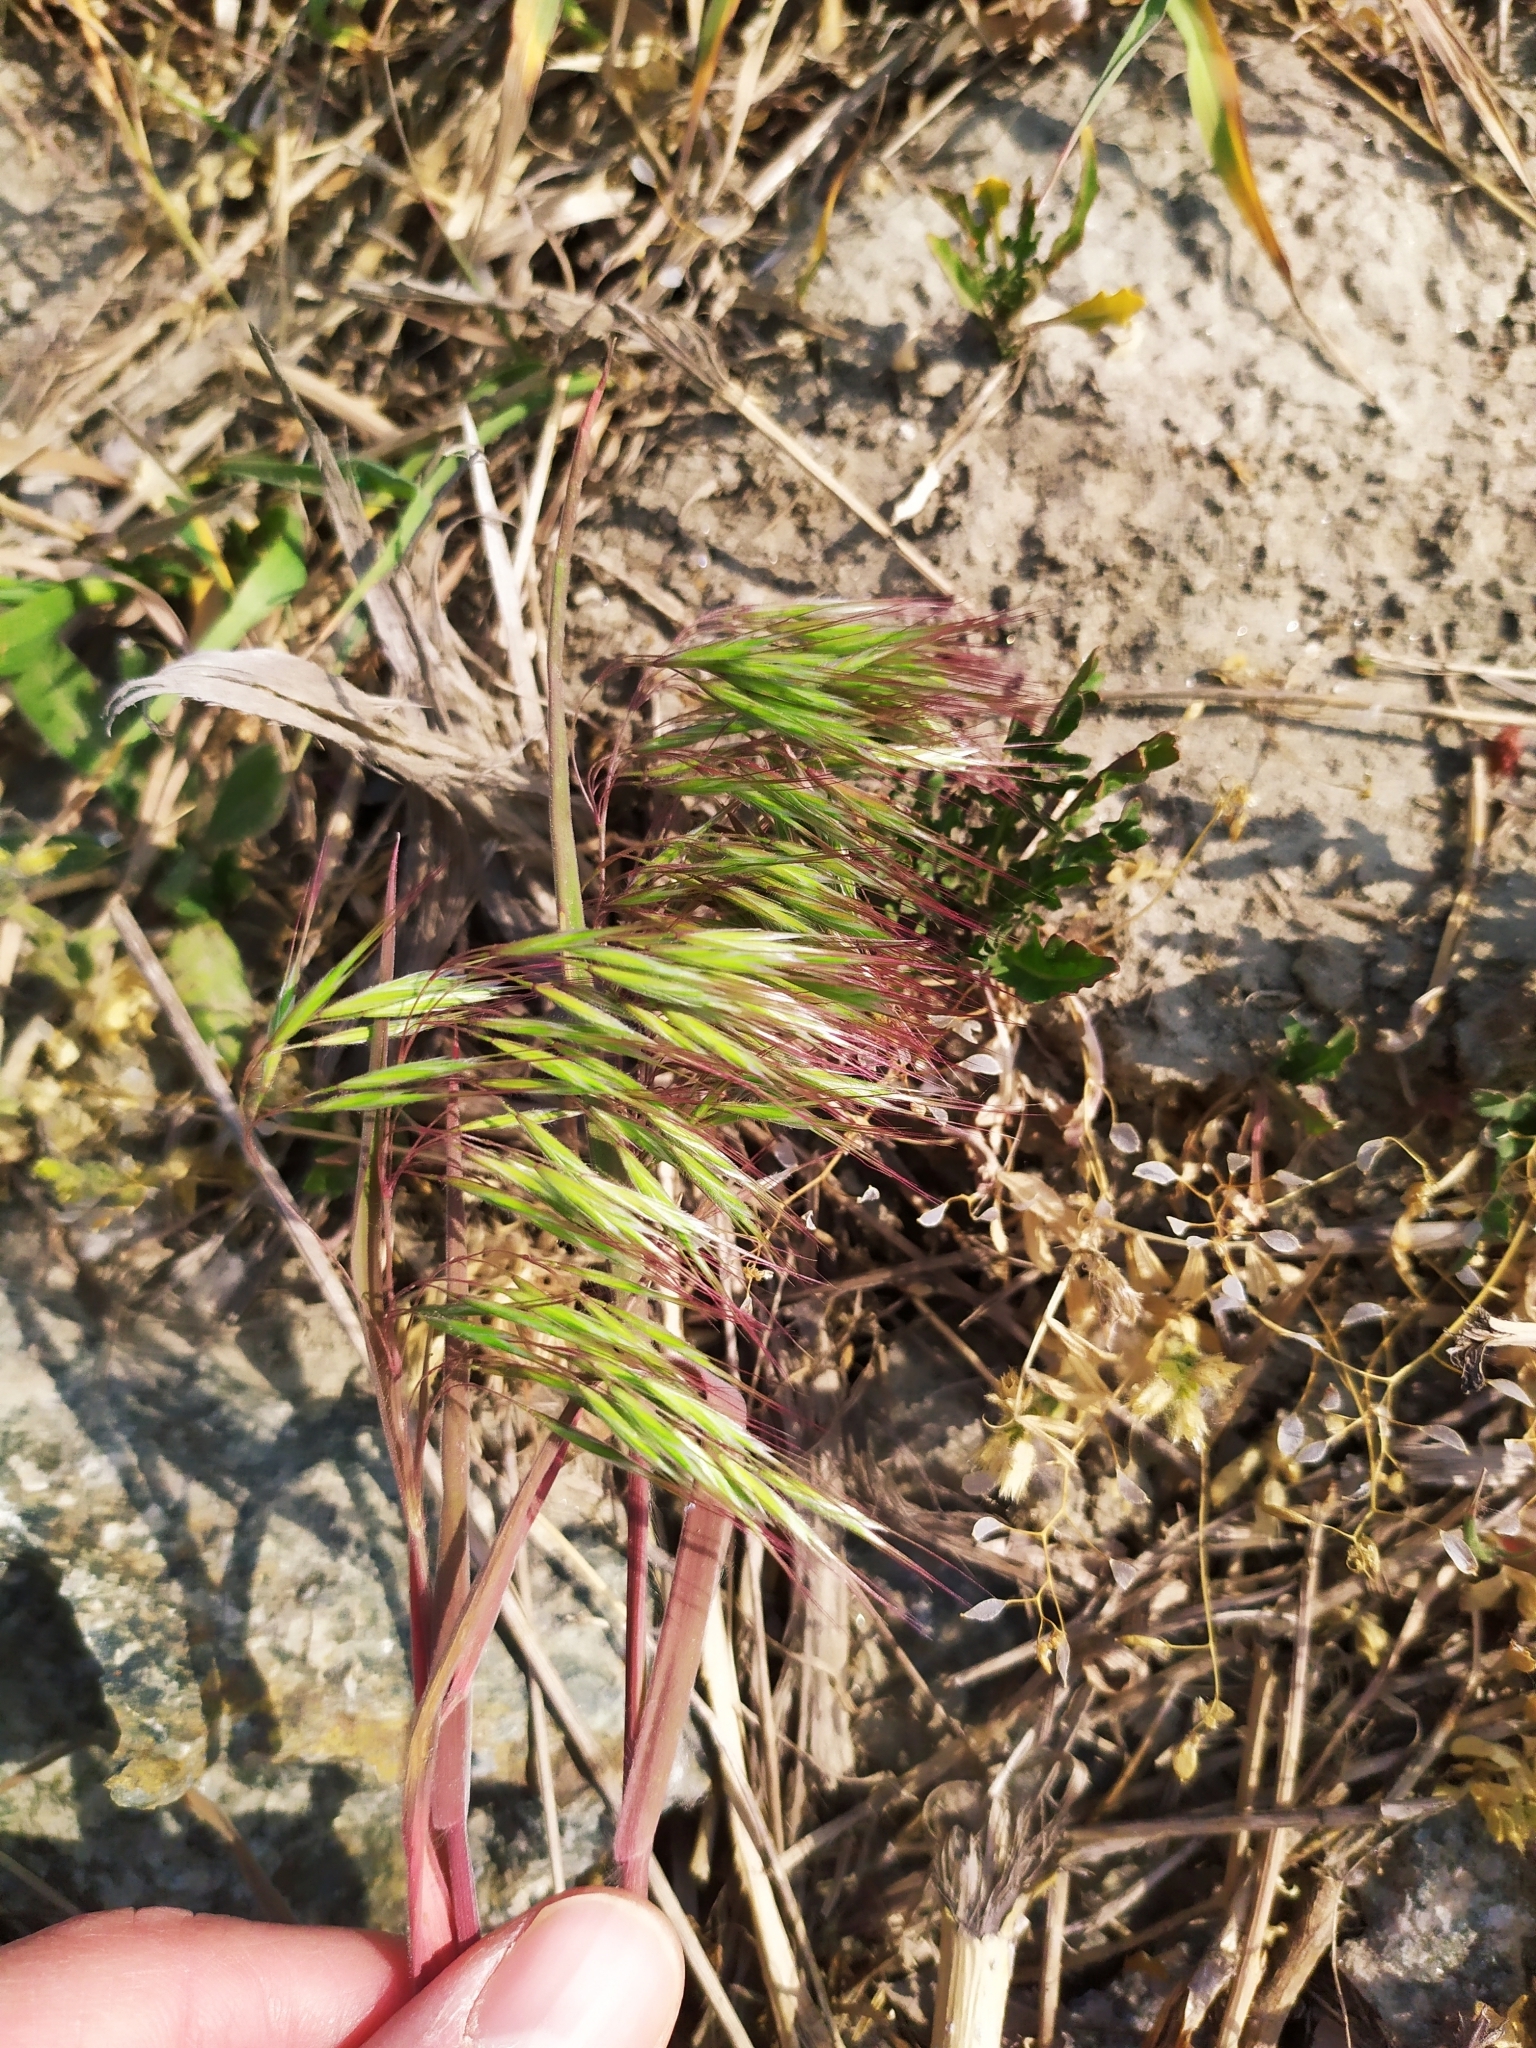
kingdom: Plantae
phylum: Tracheophyta
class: Liliopsida
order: Poales
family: Poaceae
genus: Bromus
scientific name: Bromus tectorum
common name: Cheatgrass
